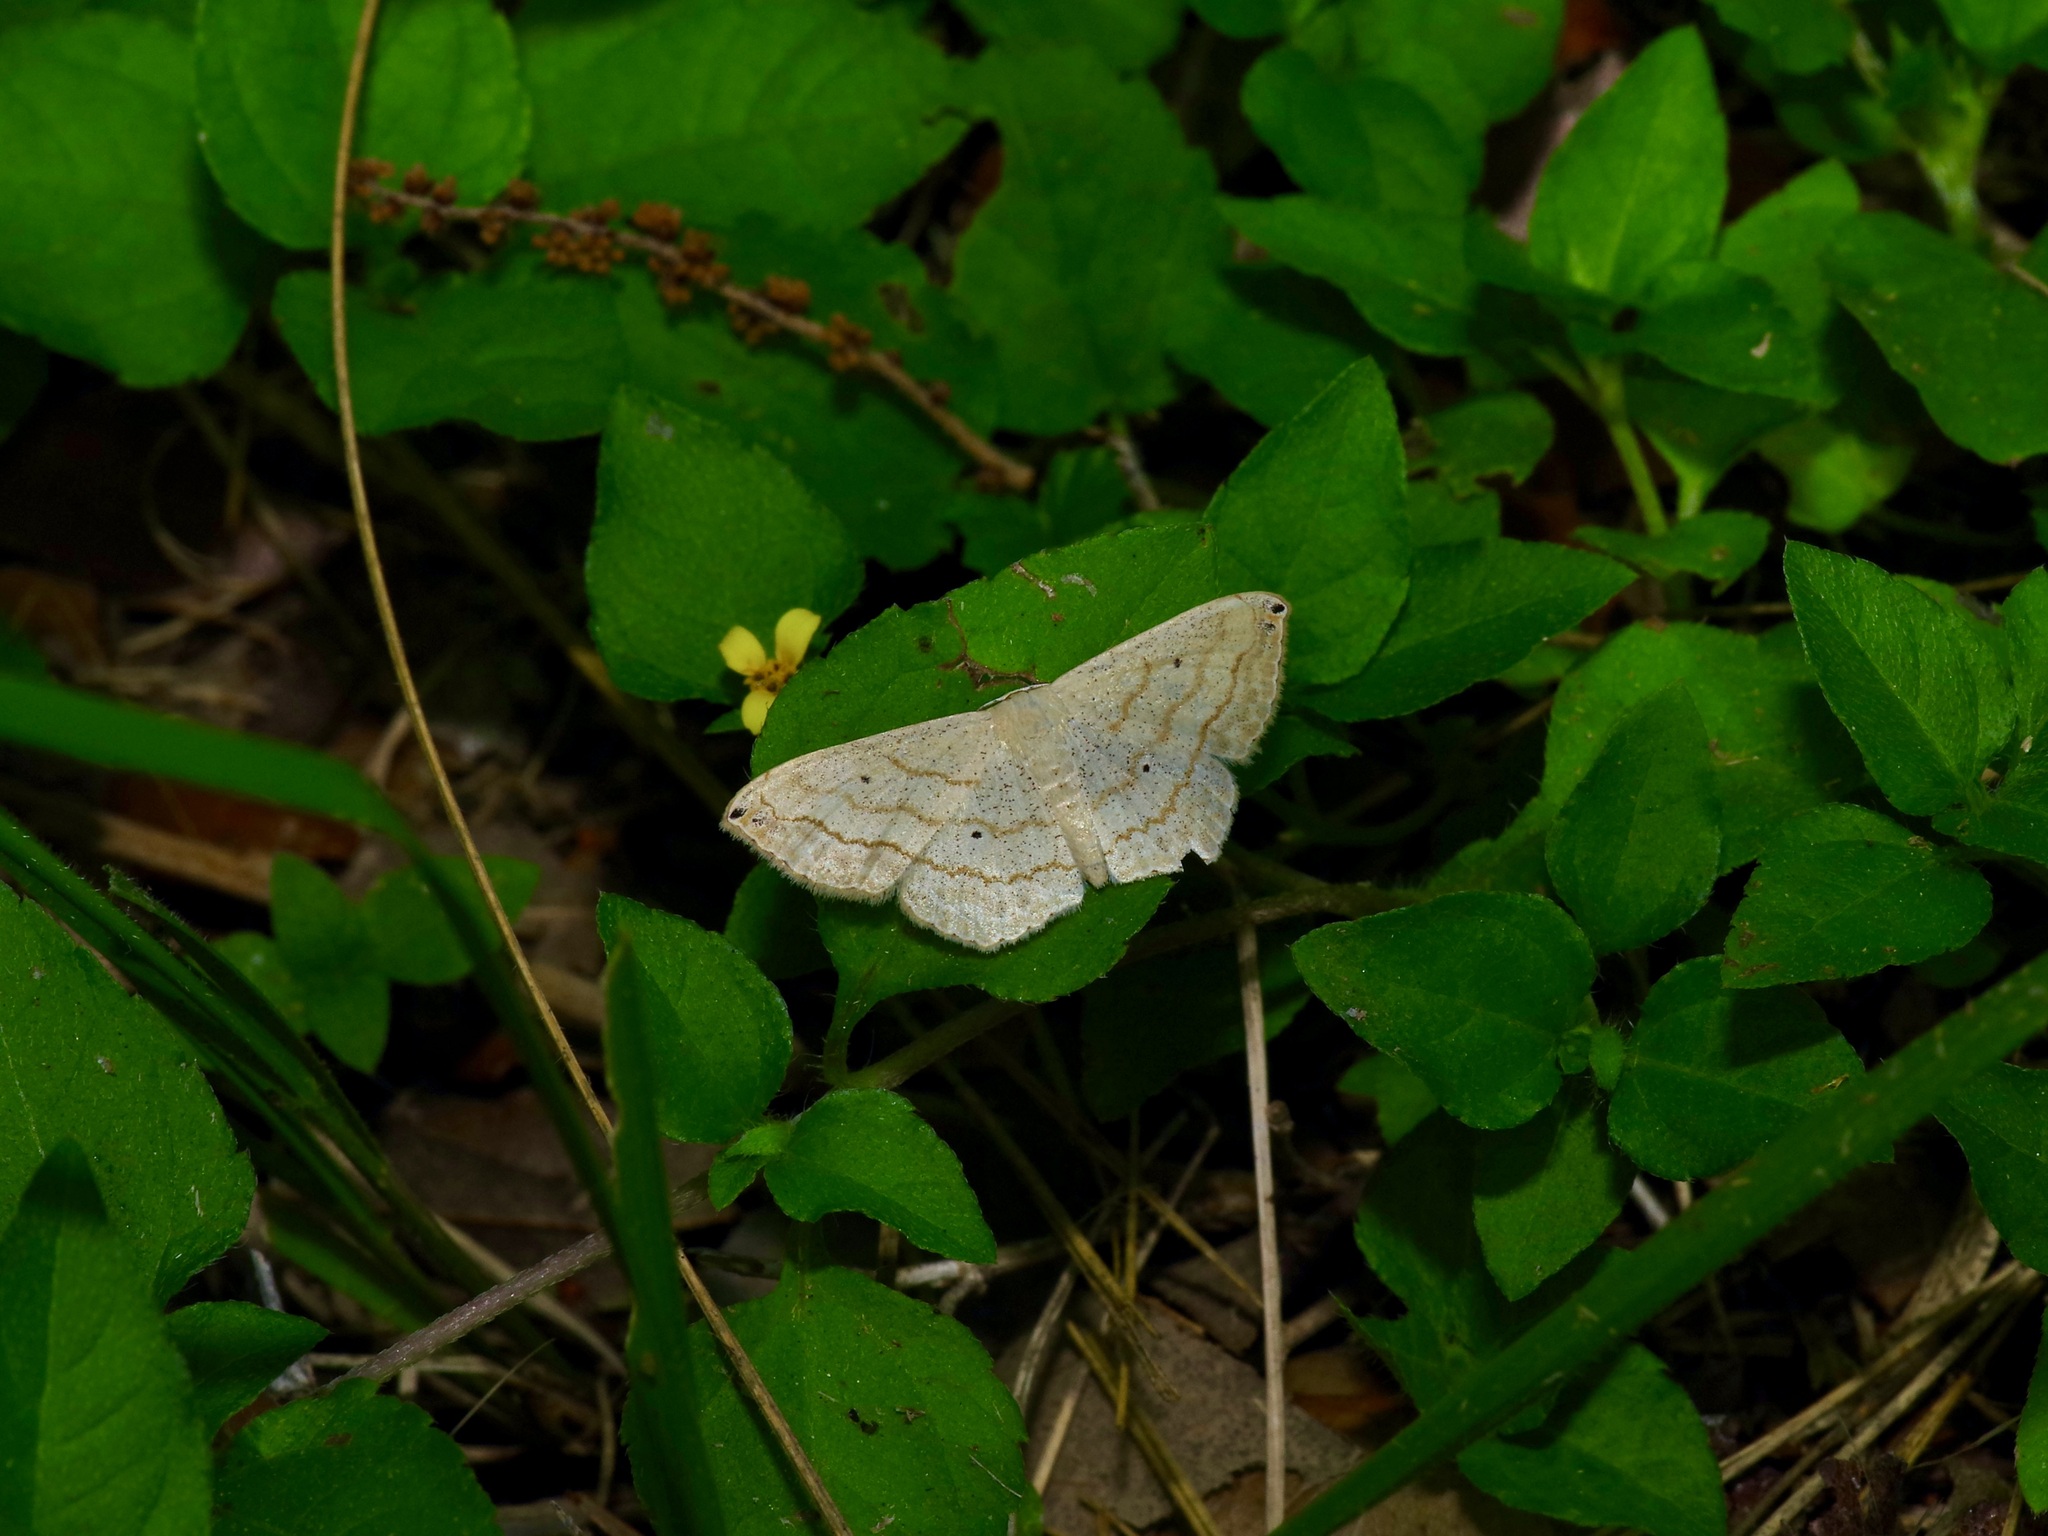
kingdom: Animalia
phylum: Arthropoda
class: Insecta
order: Lepidoptera
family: Geometridae
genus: Scopula
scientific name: Scopula umbilicata
